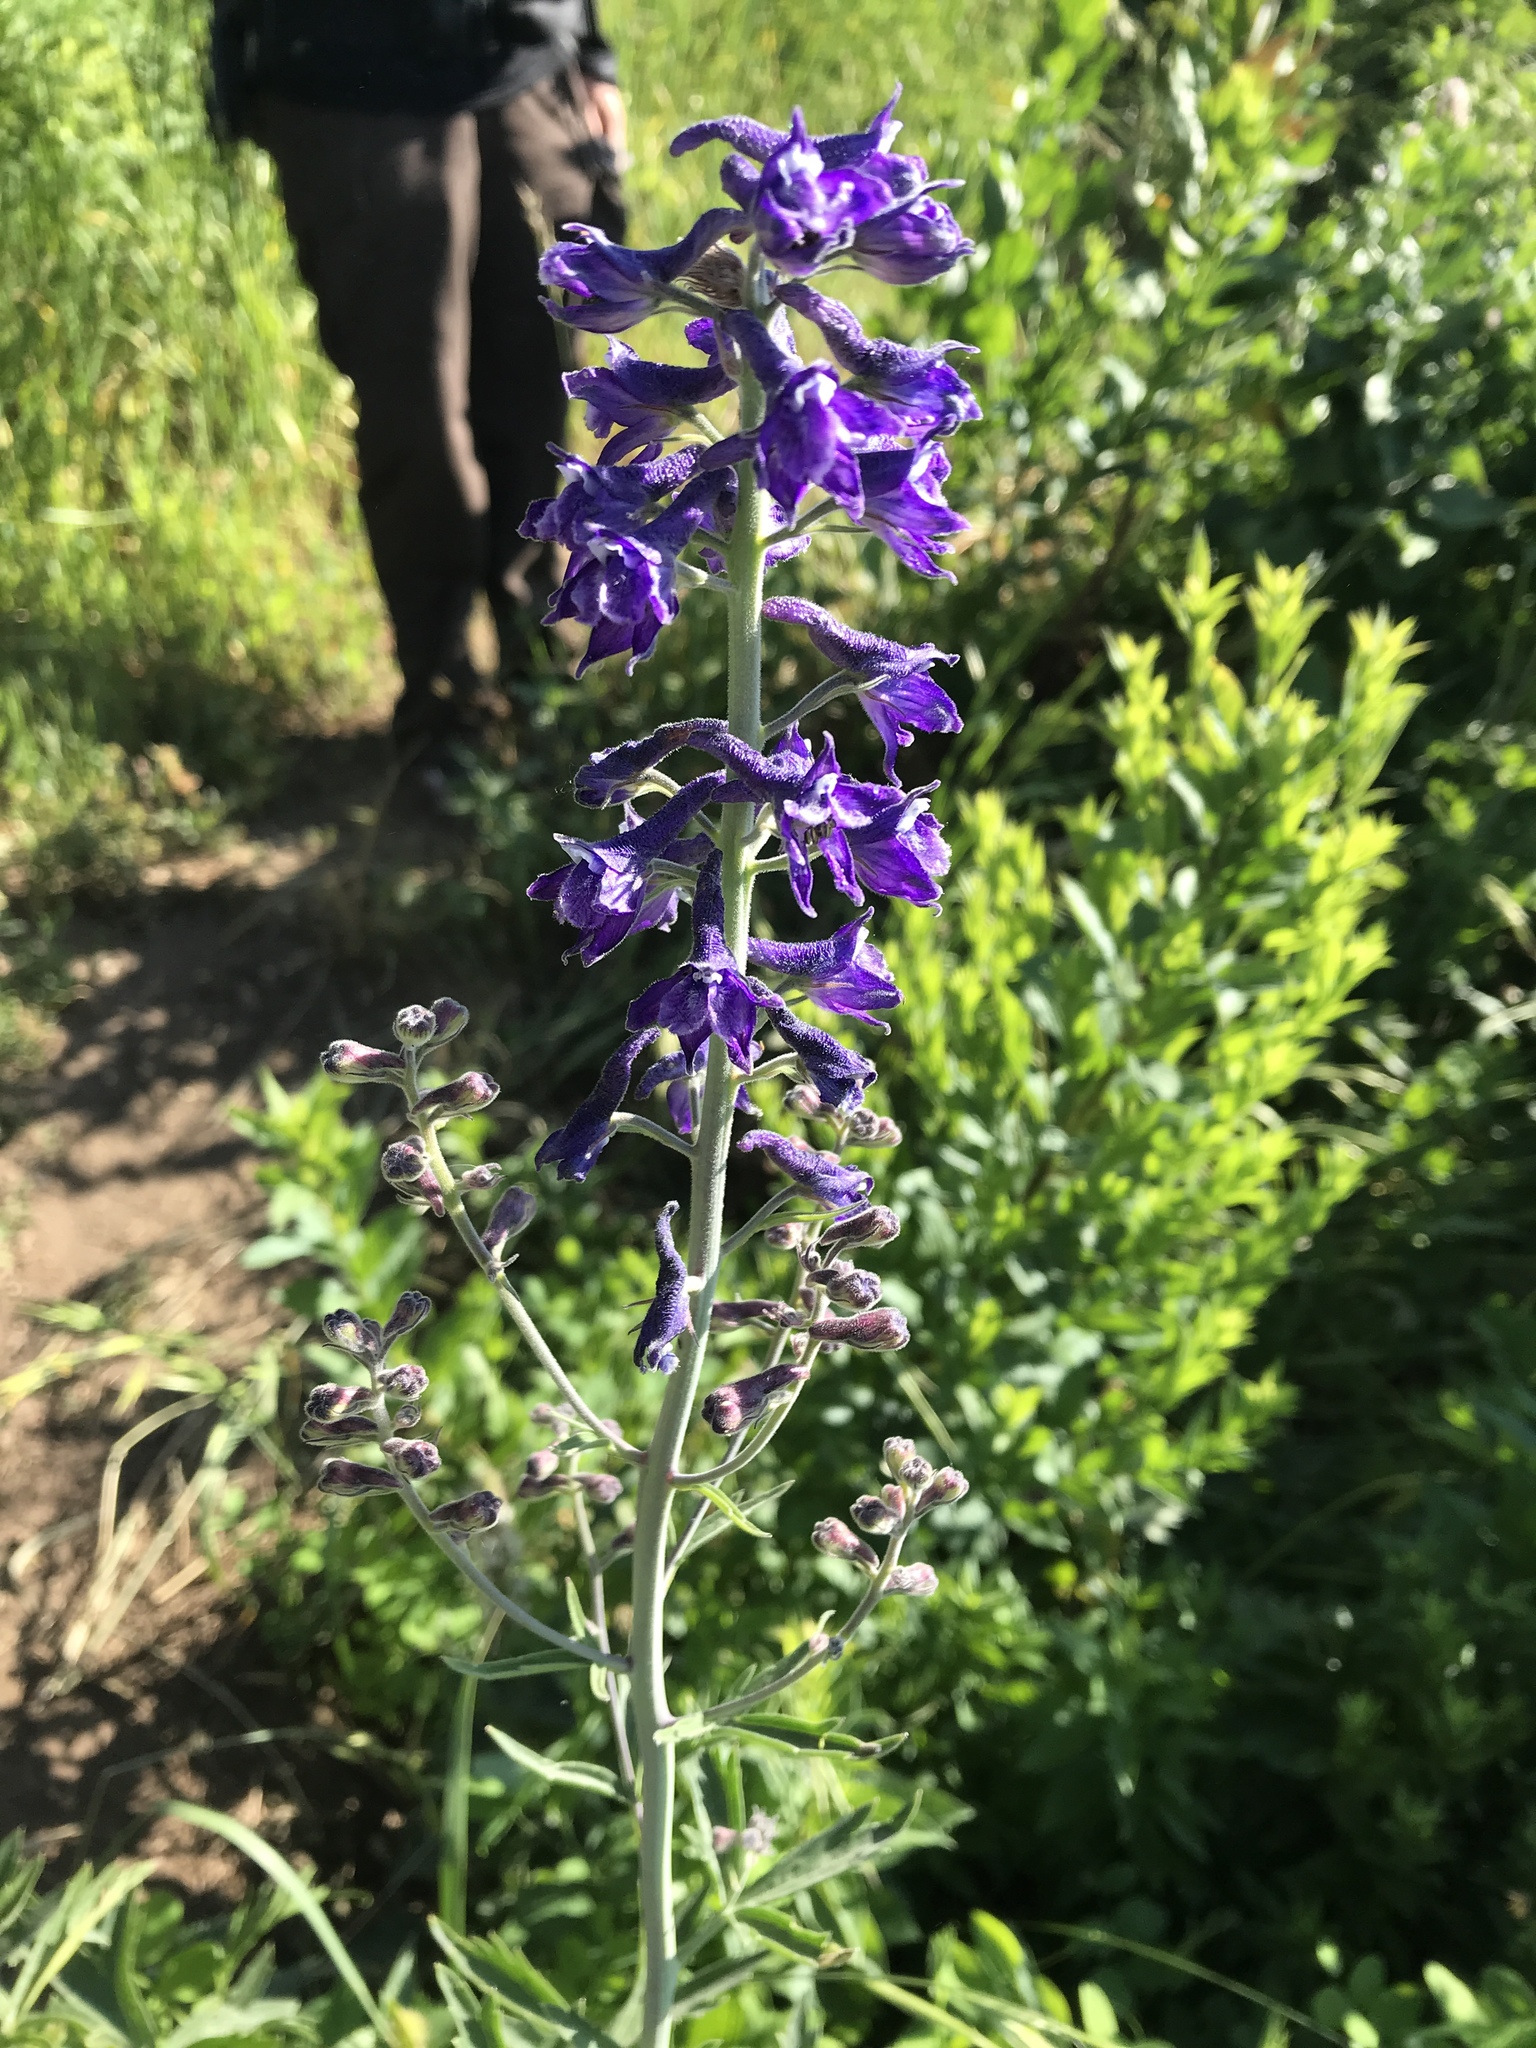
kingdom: Plantae
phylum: Tracheophyta
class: Magnoliopsida
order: Ranunculales
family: Ranunculaceae
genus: Delphinium
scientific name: Delphinium occidentale
